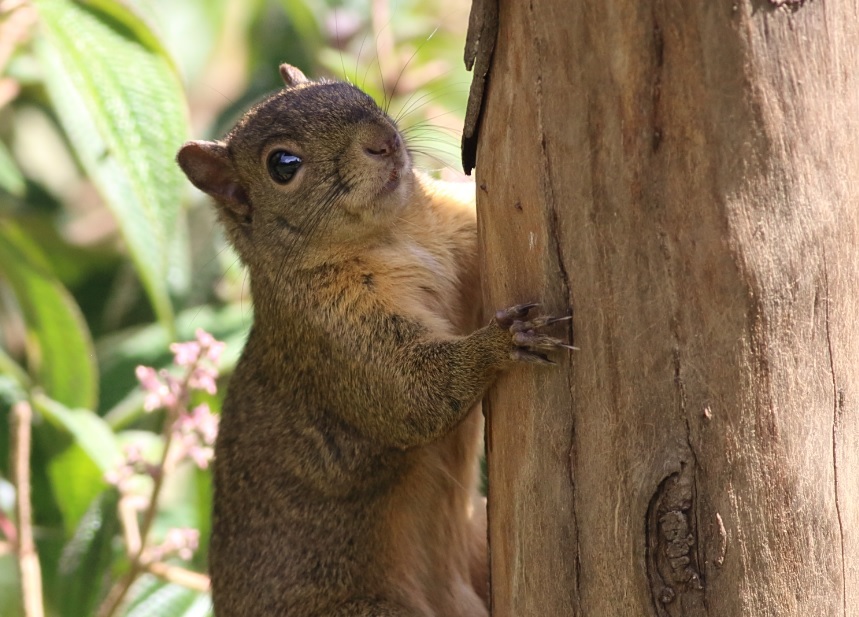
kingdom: Animalia
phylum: Chordata
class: Mammalia
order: Rodentia
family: Sciuridae
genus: Sciurus
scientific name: Sciurus granatensis
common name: Red-tailed squirrel
